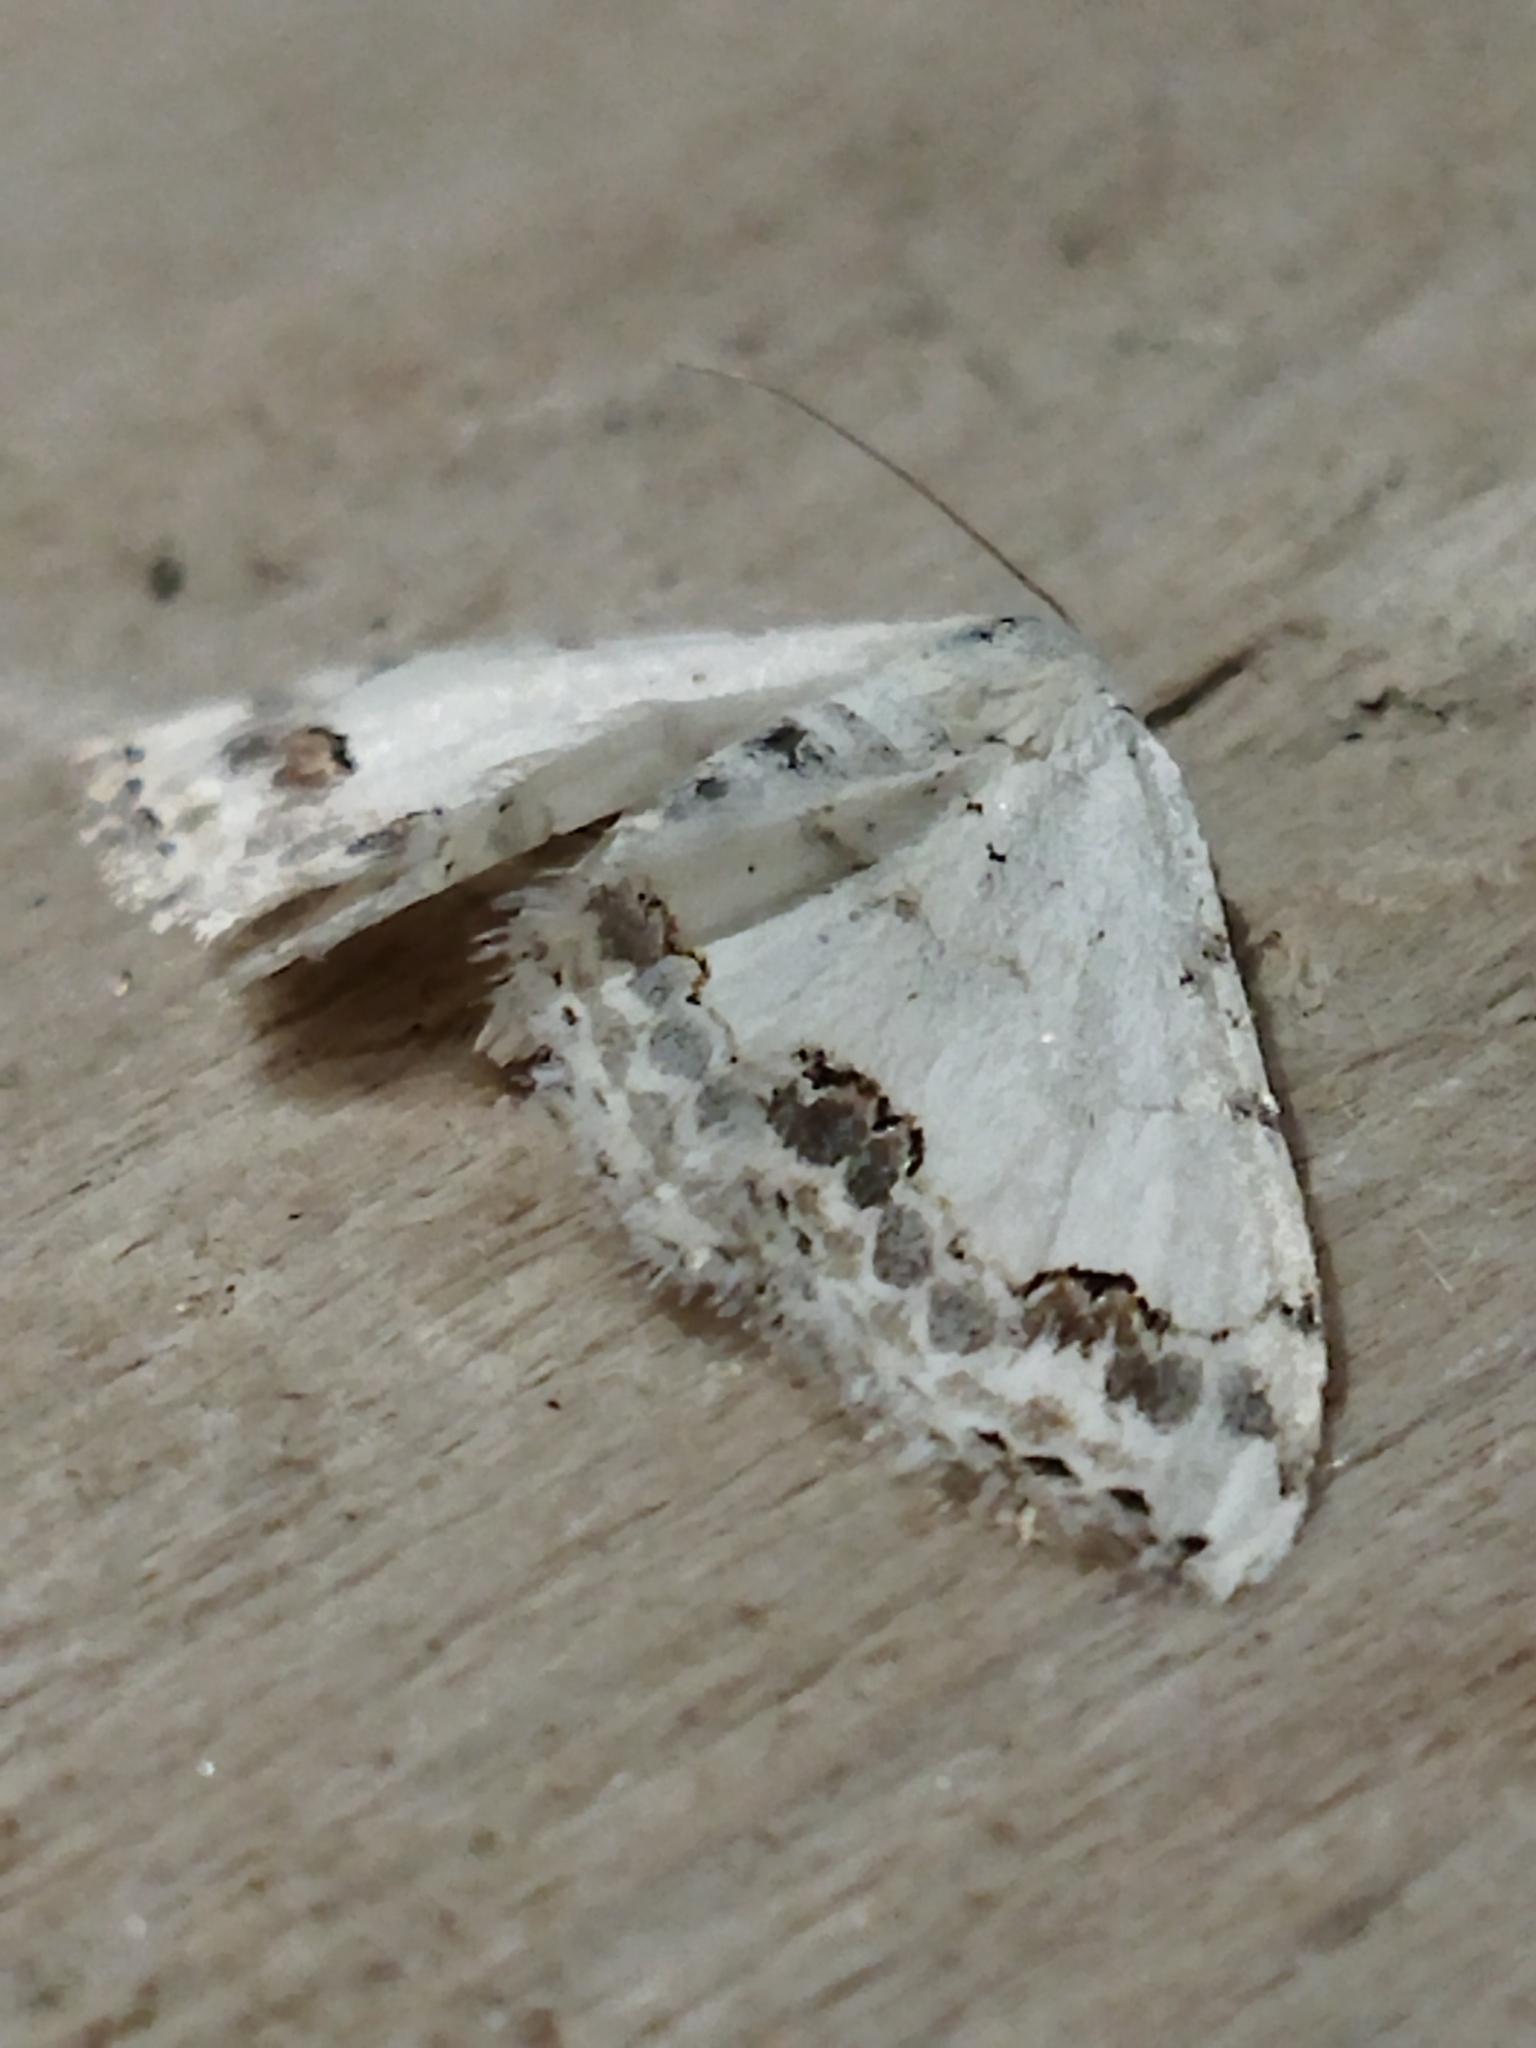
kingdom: Animalia
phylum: Arthropoda
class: Insecta
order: Lepidoptera
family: Geometridae
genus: Scopula
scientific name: Scopula ornata
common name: Lace border
